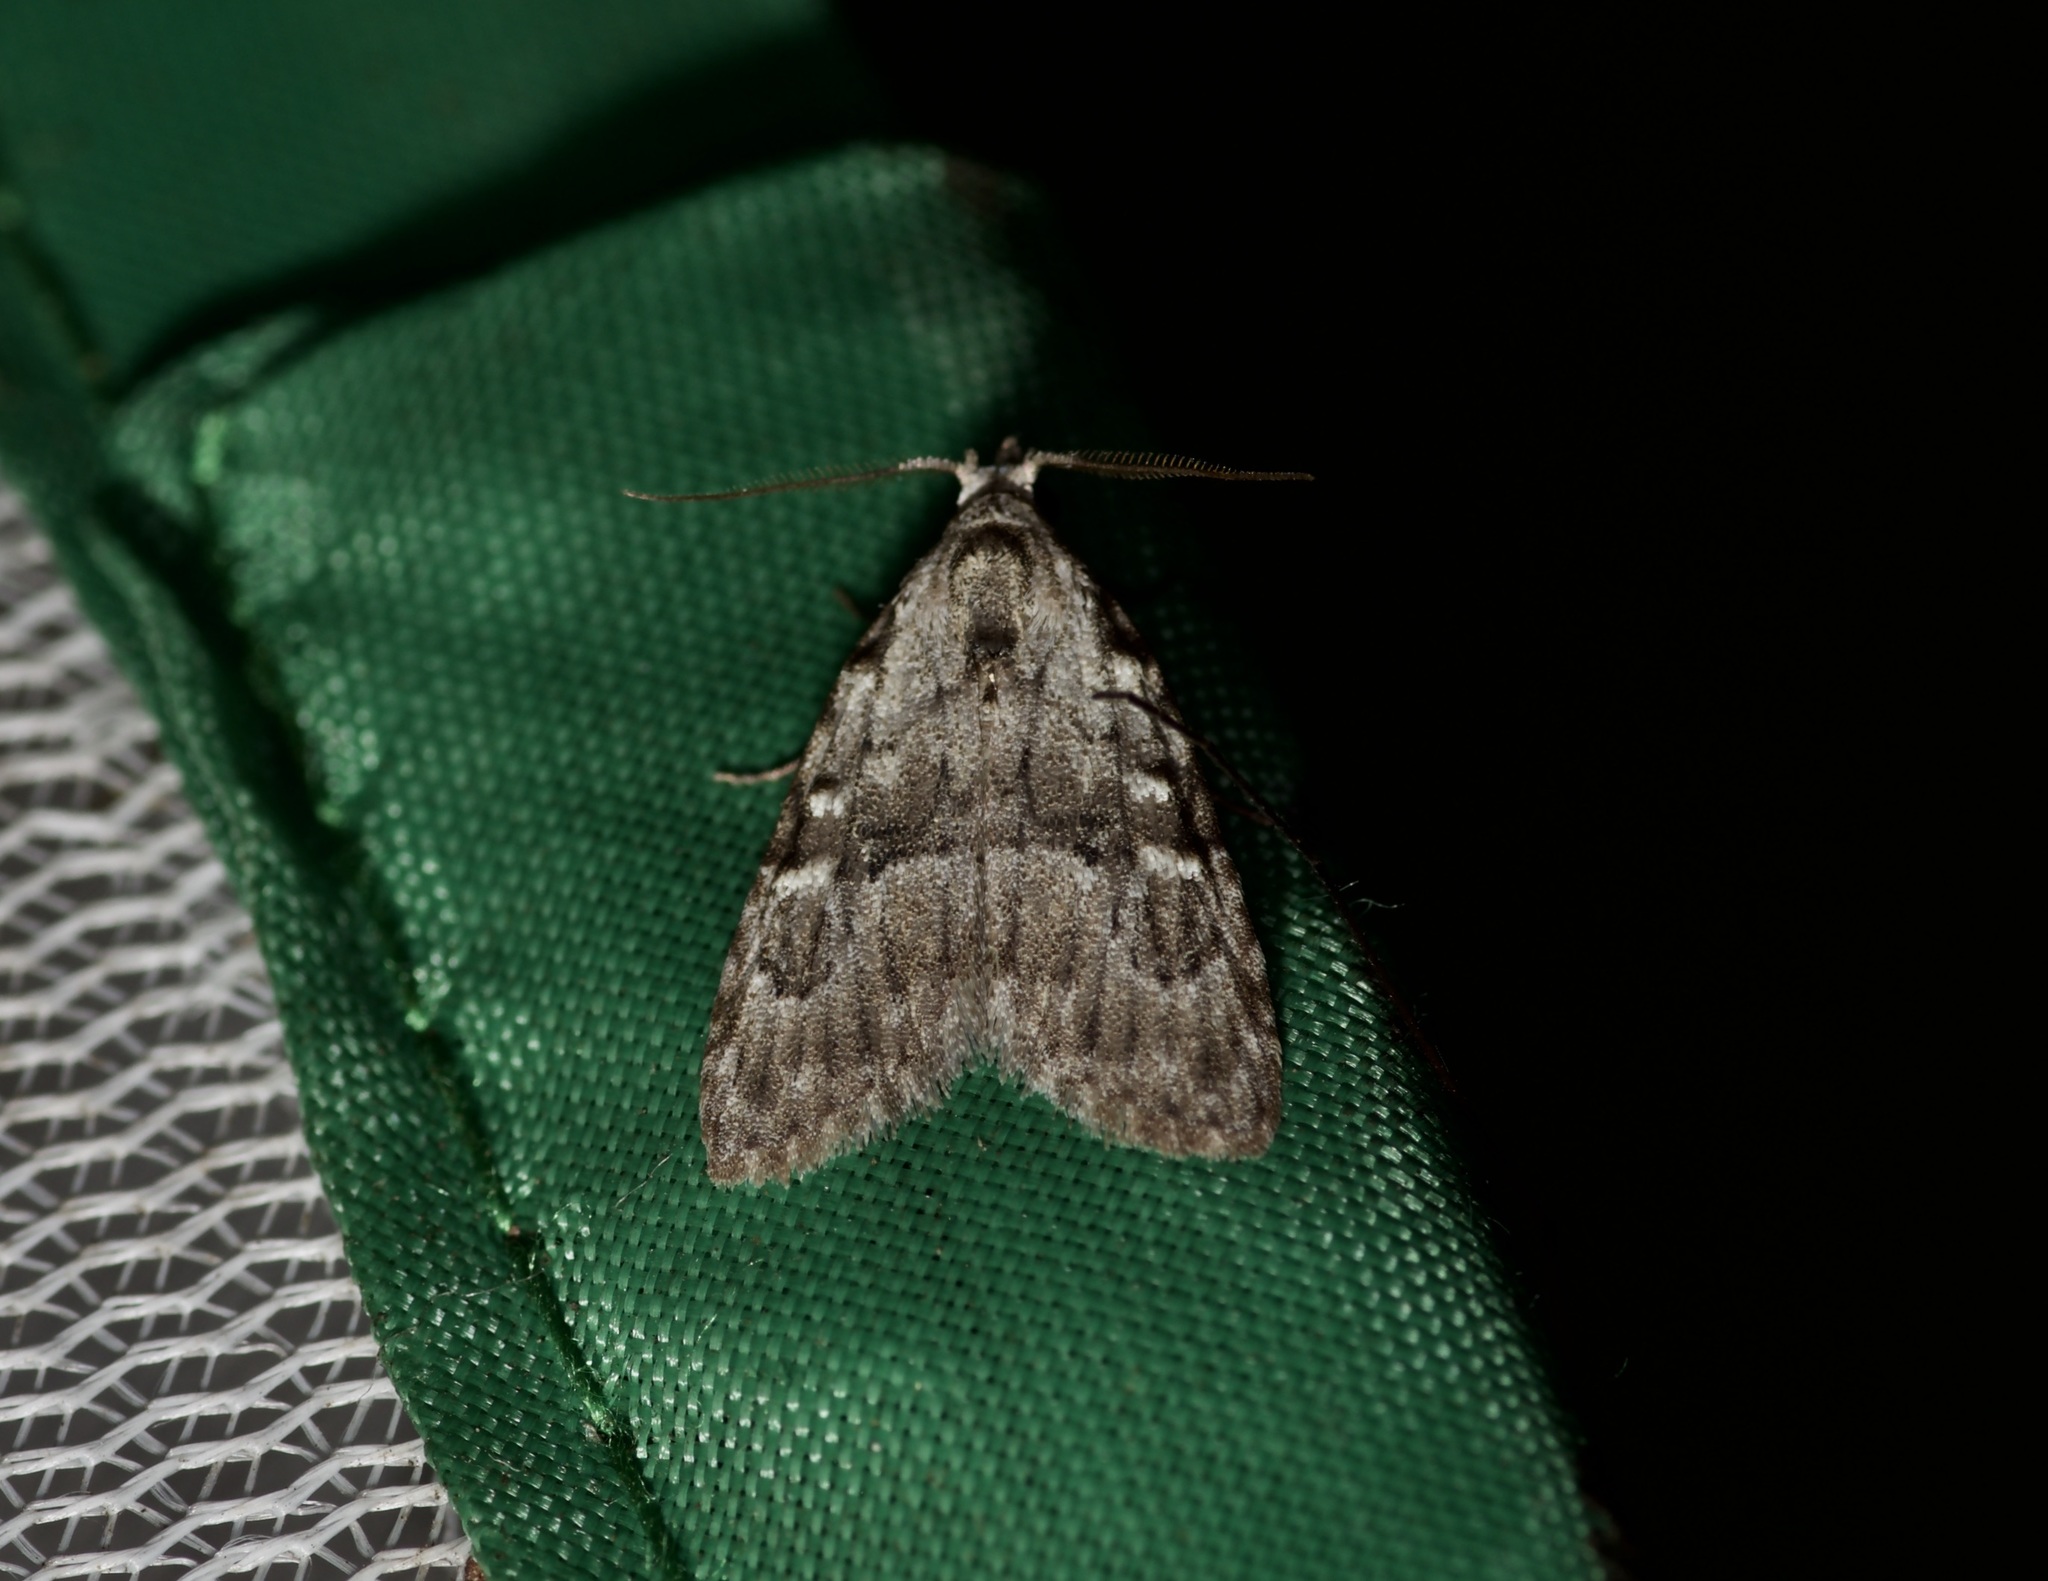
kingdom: Animalia
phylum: Arthropoda
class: Insecta
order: Lepidoptera
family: Nolidae
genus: Meganola
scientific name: Meganola minuscula
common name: Confused meganola moth
